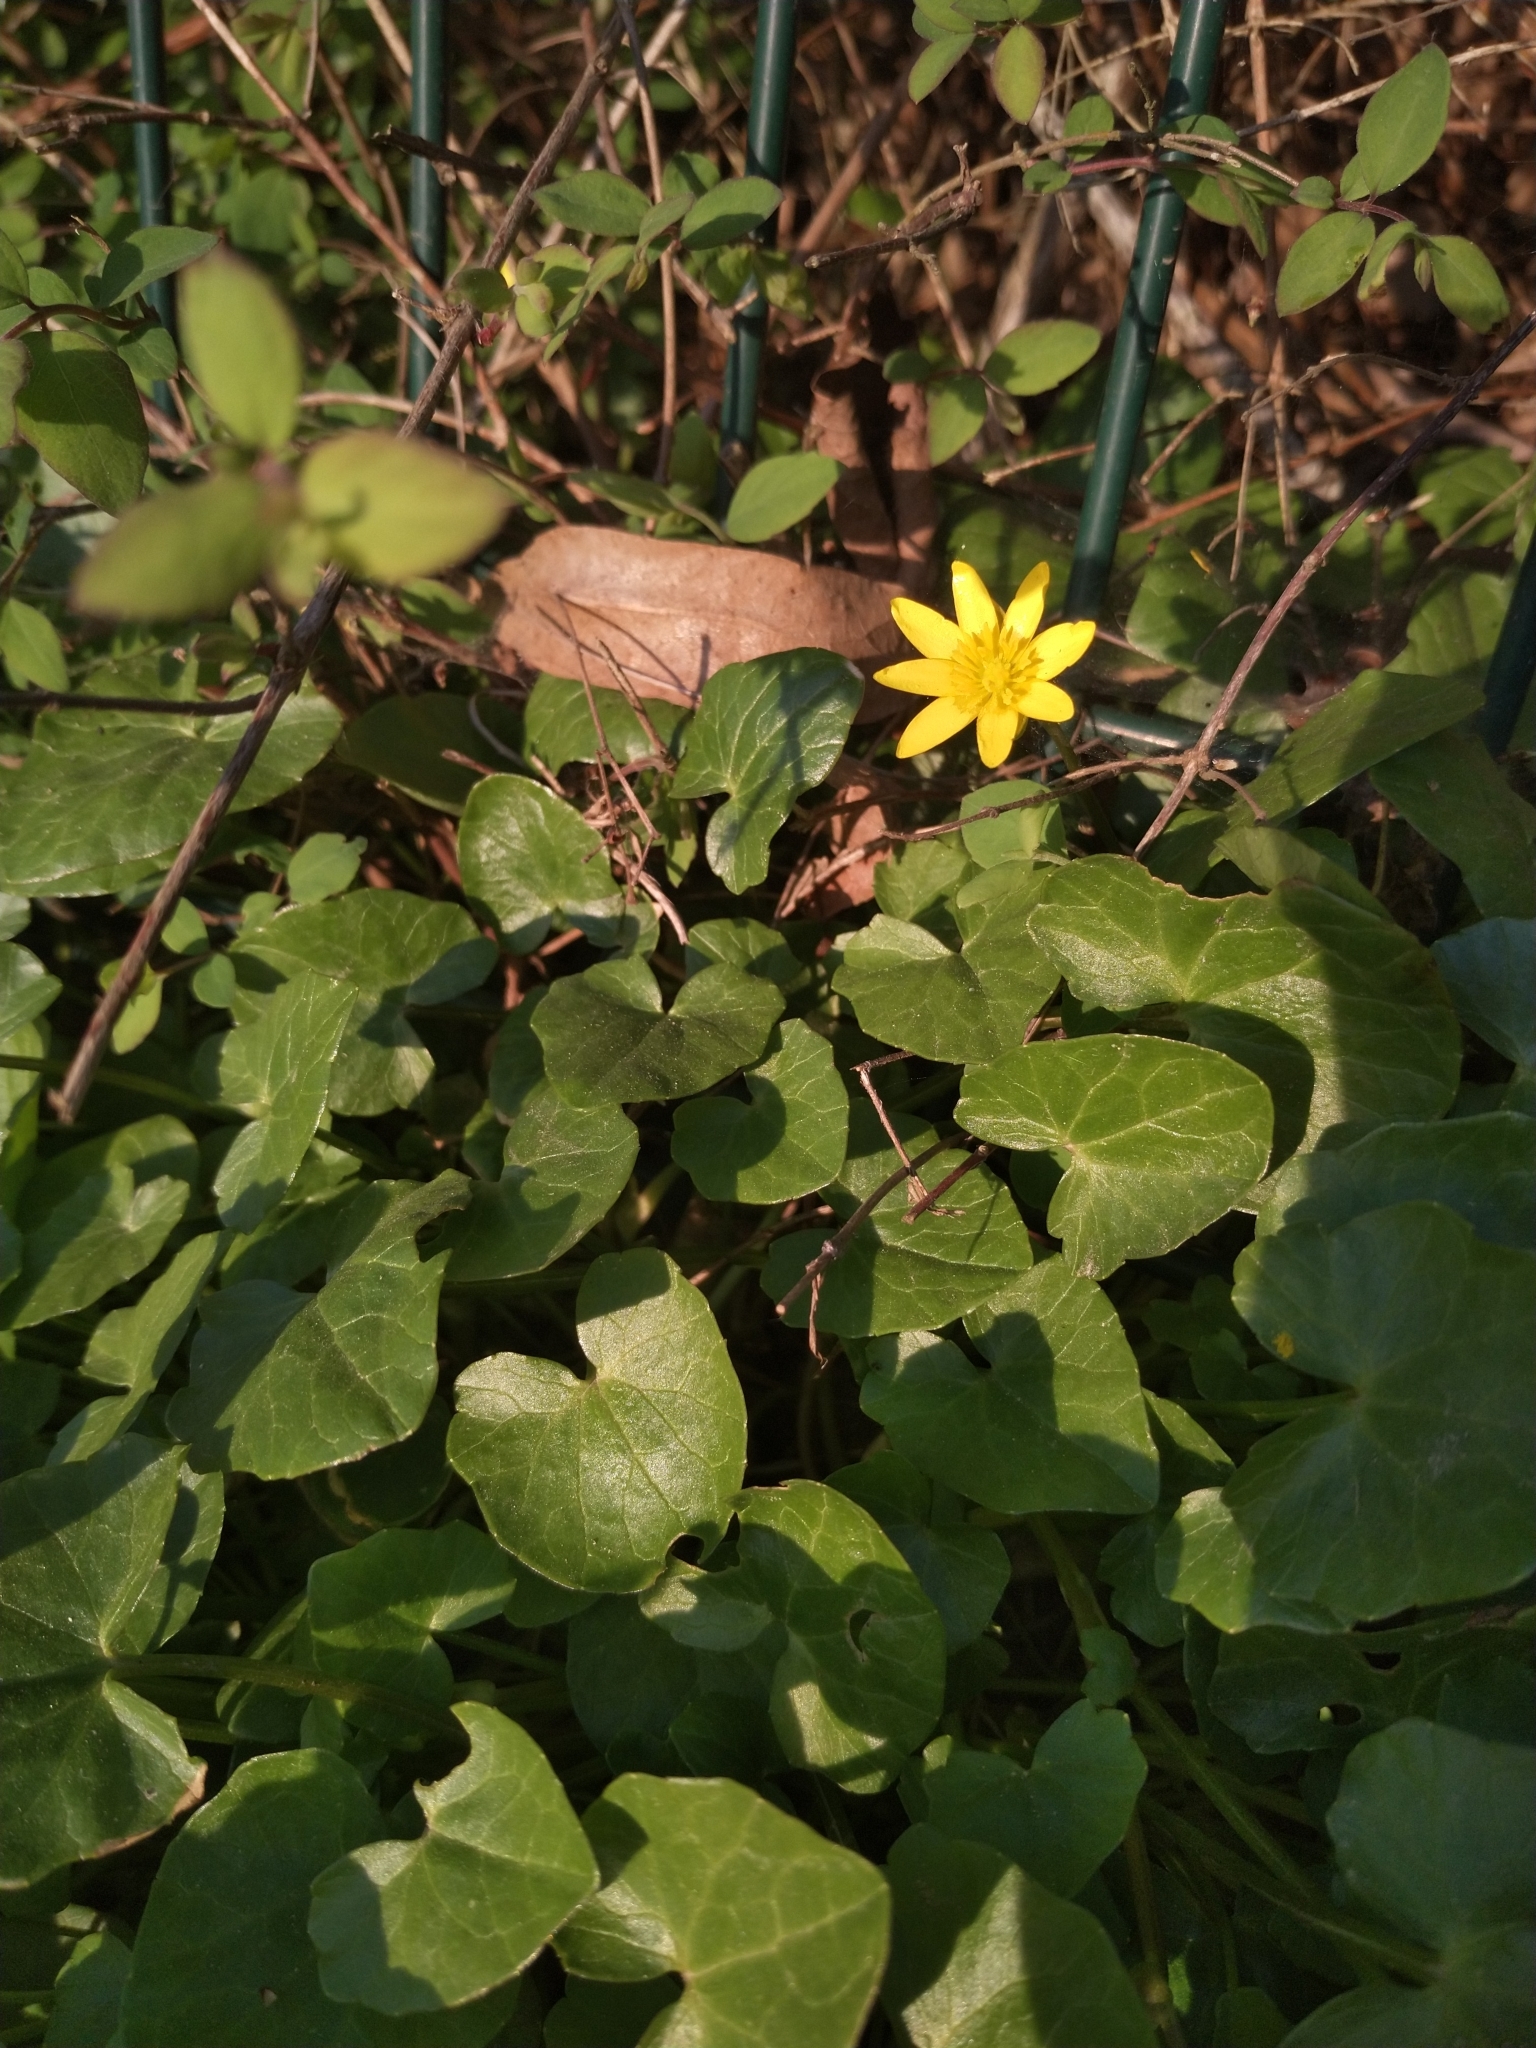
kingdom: Plantae
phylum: Tracheophyta
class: Magnoliopsida
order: Ranunculales
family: Ranunculaceae
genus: Ficaria
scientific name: Ficaria verna
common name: Lesser celandine
